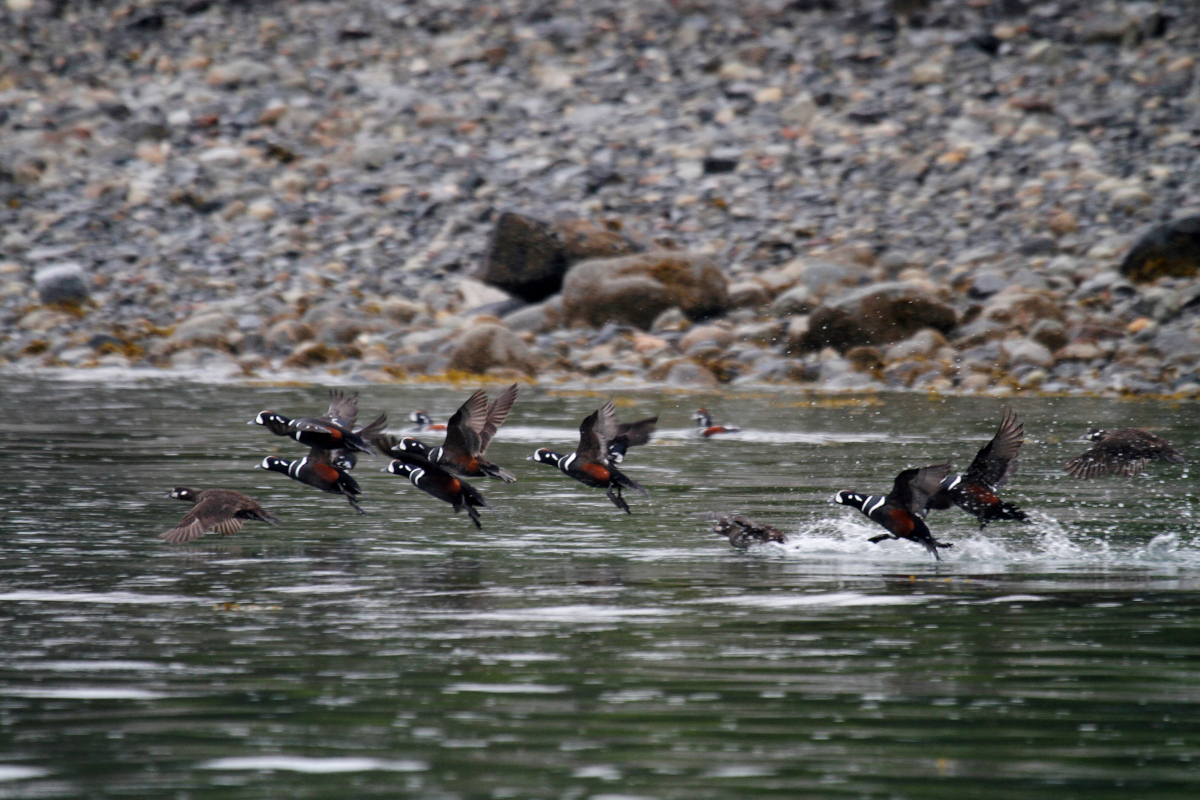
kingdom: Animalia
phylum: Chordata
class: Aves
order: Anseriformes
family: Anatidae
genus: Histrionicus
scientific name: Histrionicus histrionicus
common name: Harlequin duck
